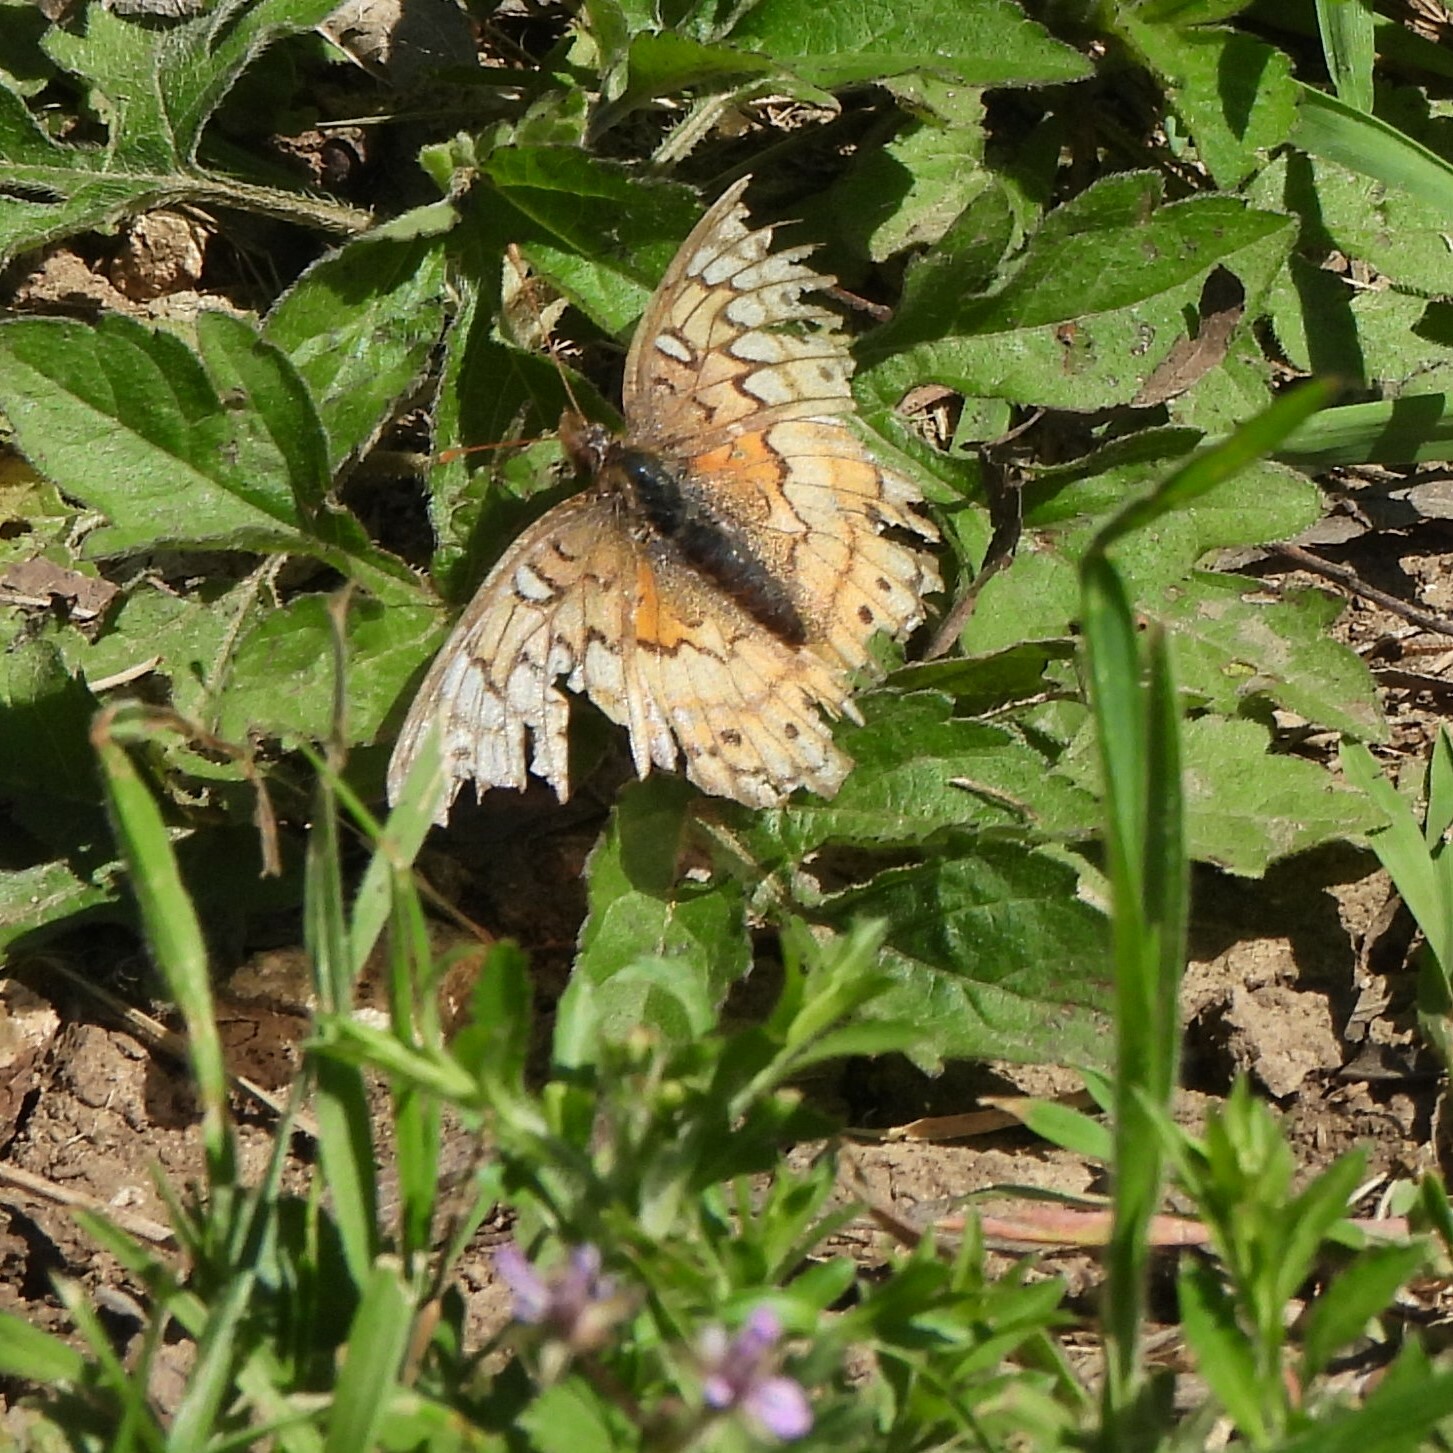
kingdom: Animalia
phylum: Arthropoda
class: Insecta
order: Lepidoptera
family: Nymphalidae
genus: Euptoieta
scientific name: Euptoieta claudia
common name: Variegated fritillary
